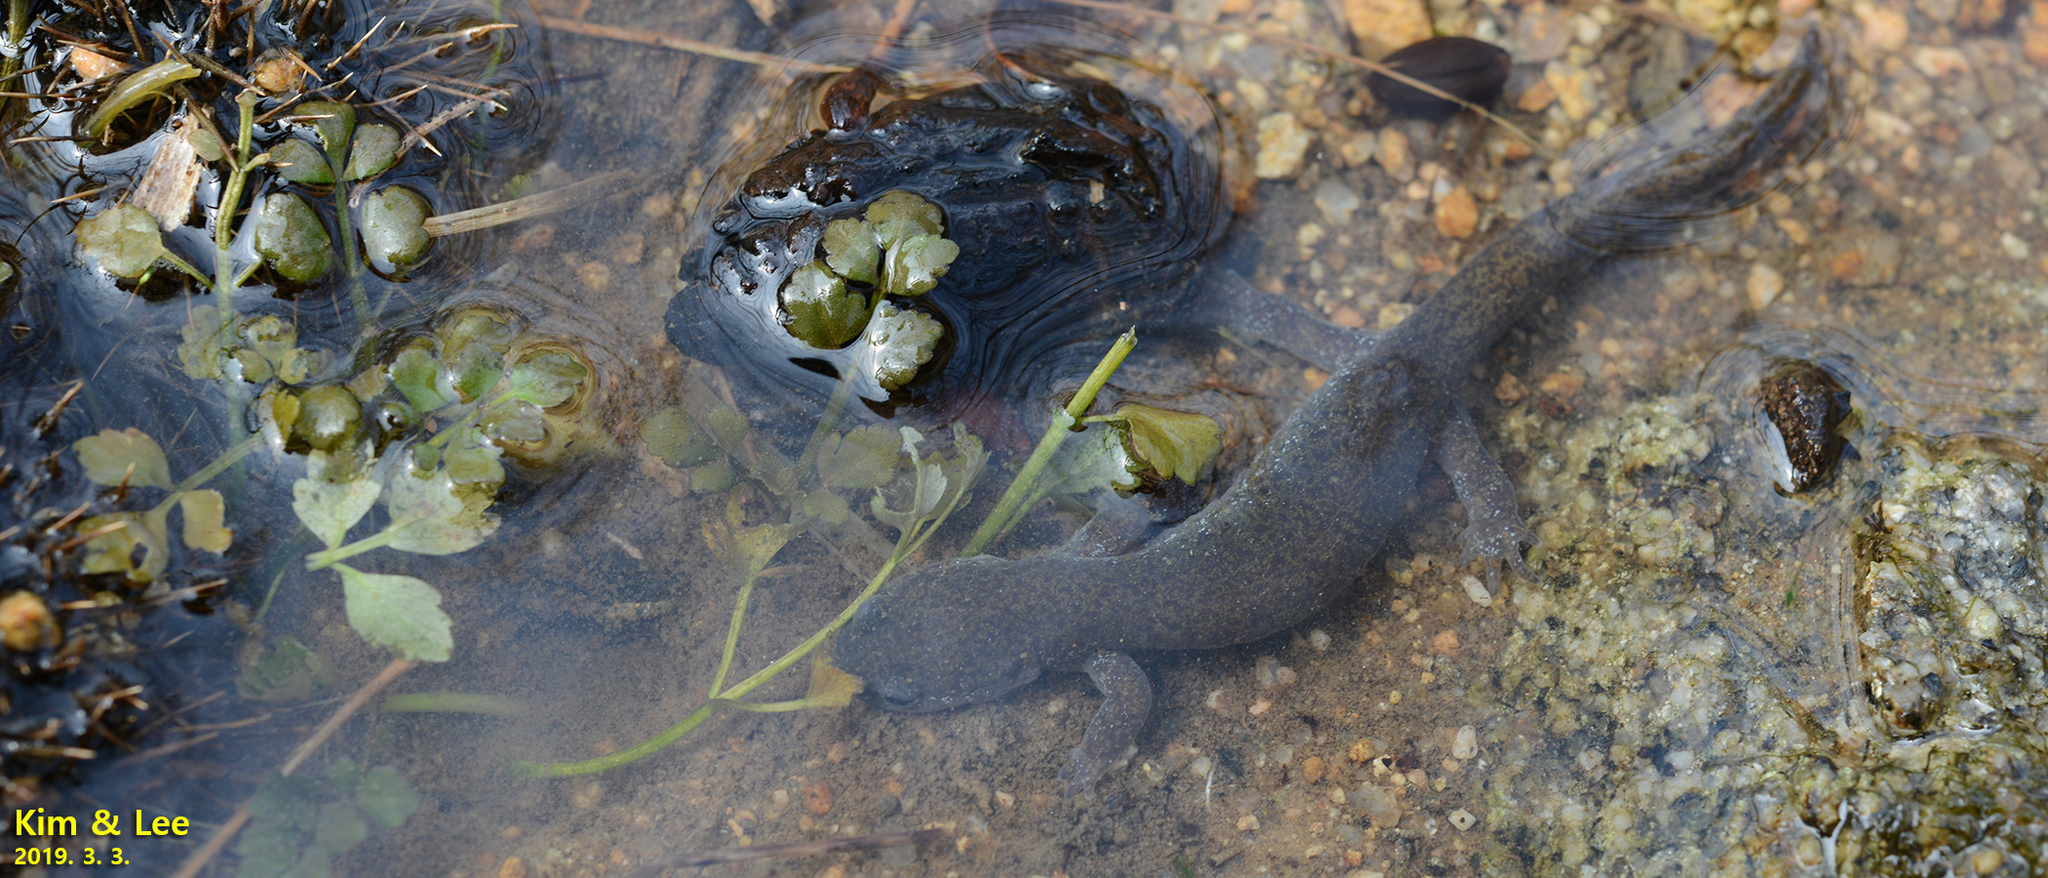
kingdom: Animalia
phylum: Chordata
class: Amphibia
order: Caudata
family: Hynobiidae
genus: Hynobius
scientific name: Hynobius unisacculus
